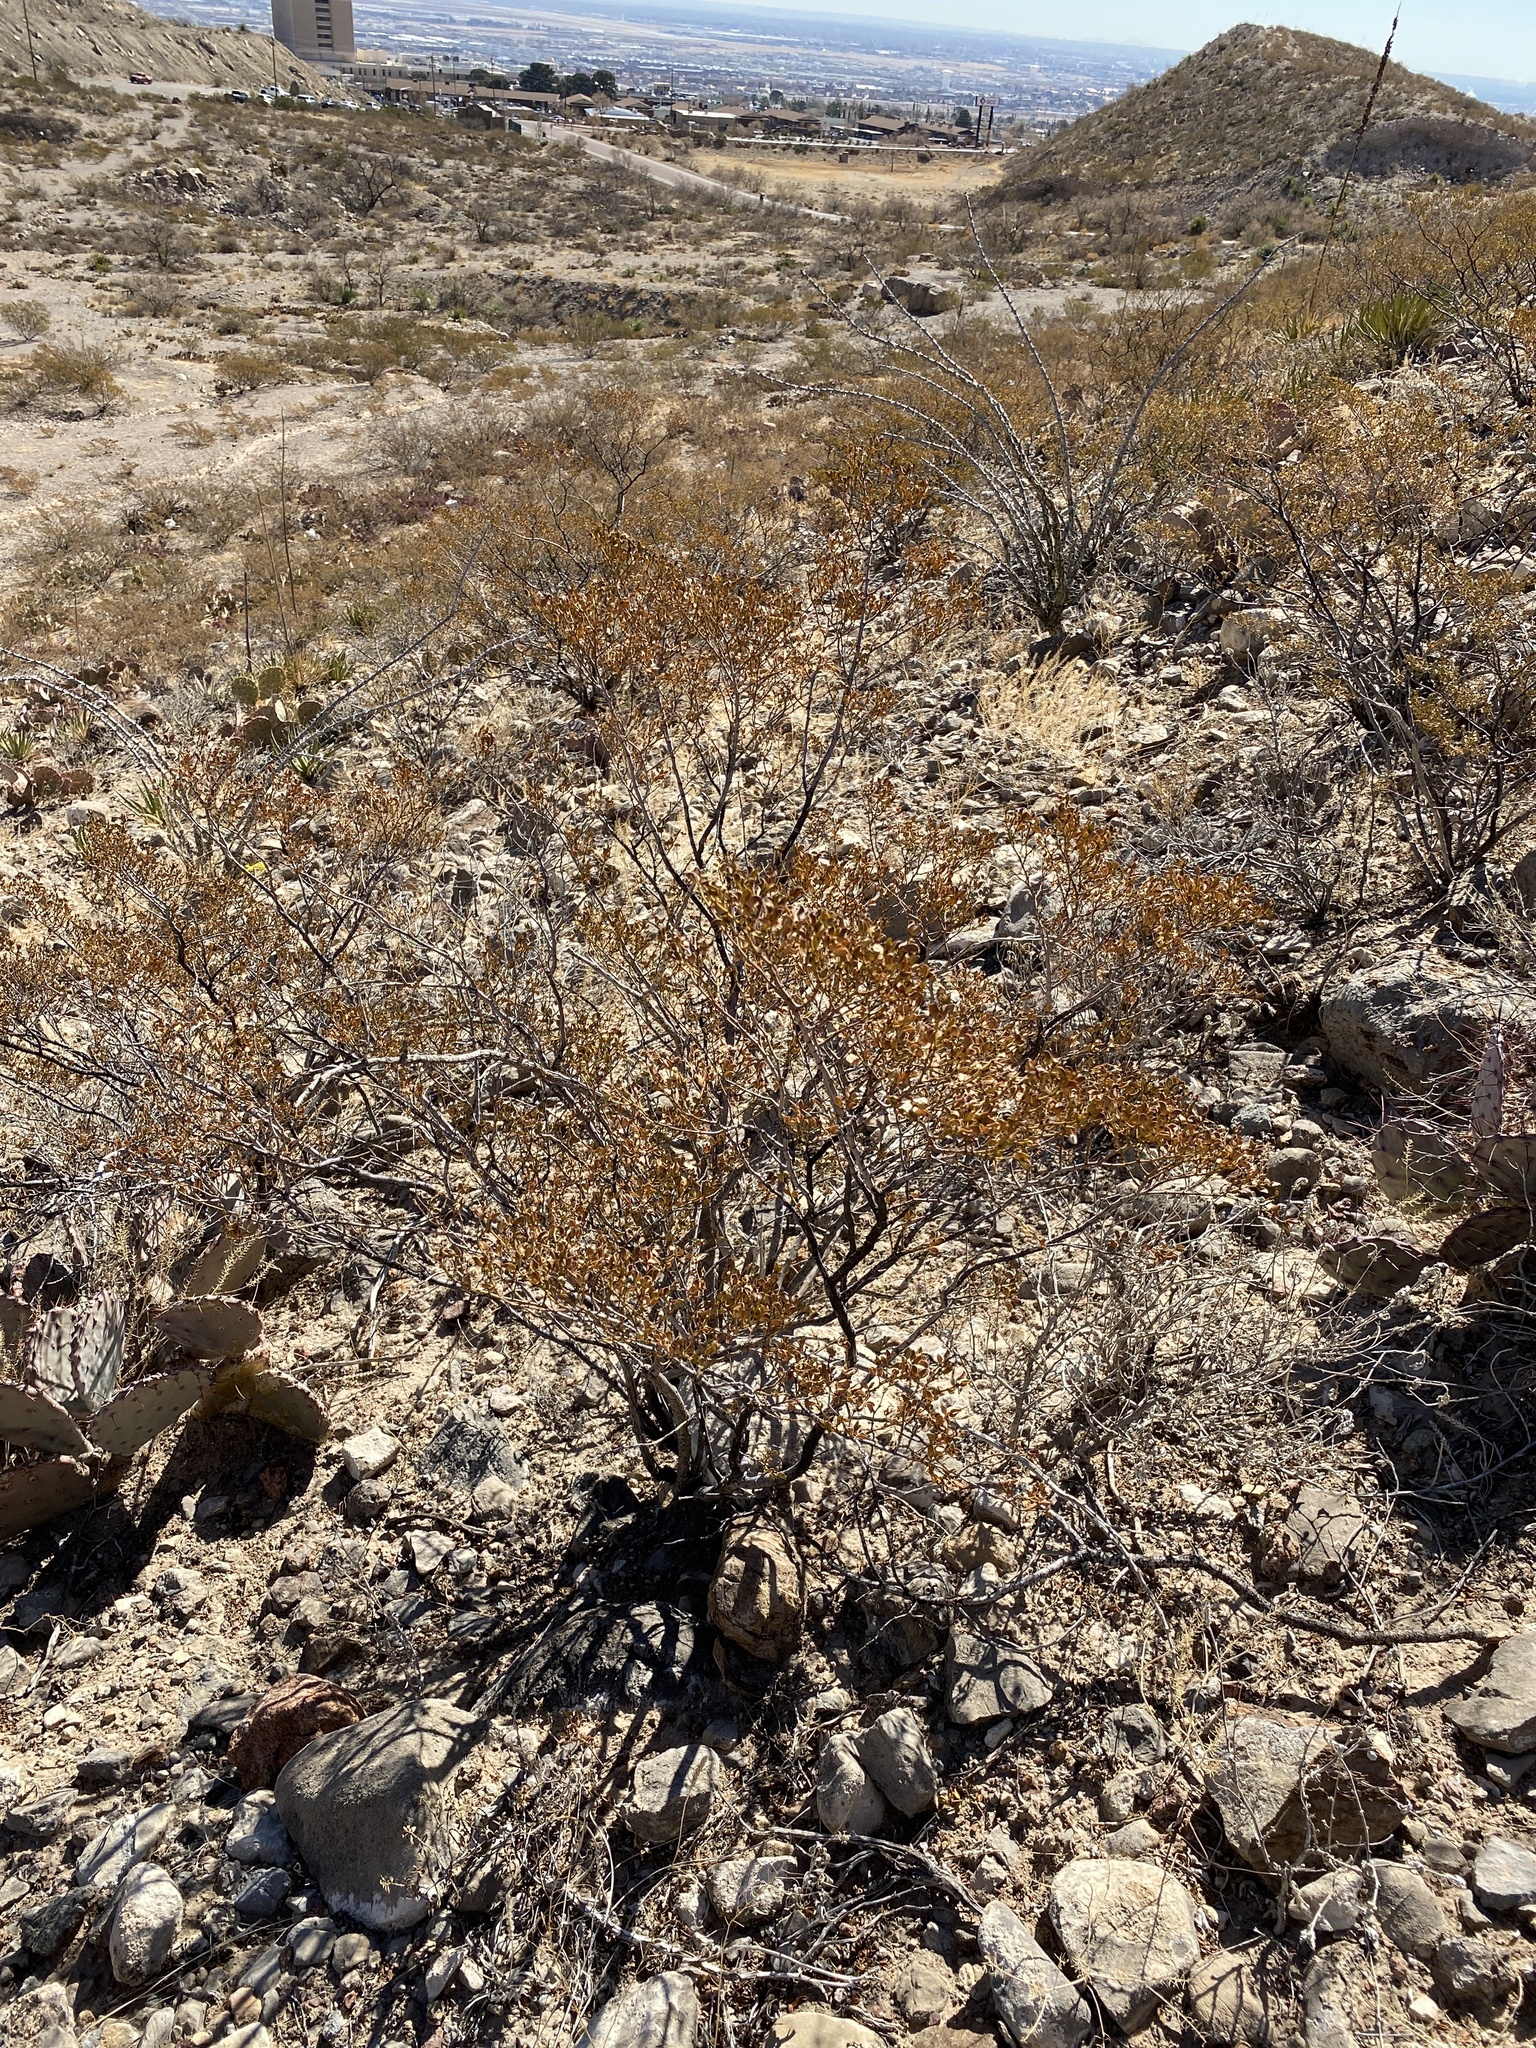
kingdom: Plantae
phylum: Tracheophyta
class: Magnoliopsida
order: Zygophyllales
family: Zygophyllaceae
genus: Larrea
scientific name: Larrea tridentata
